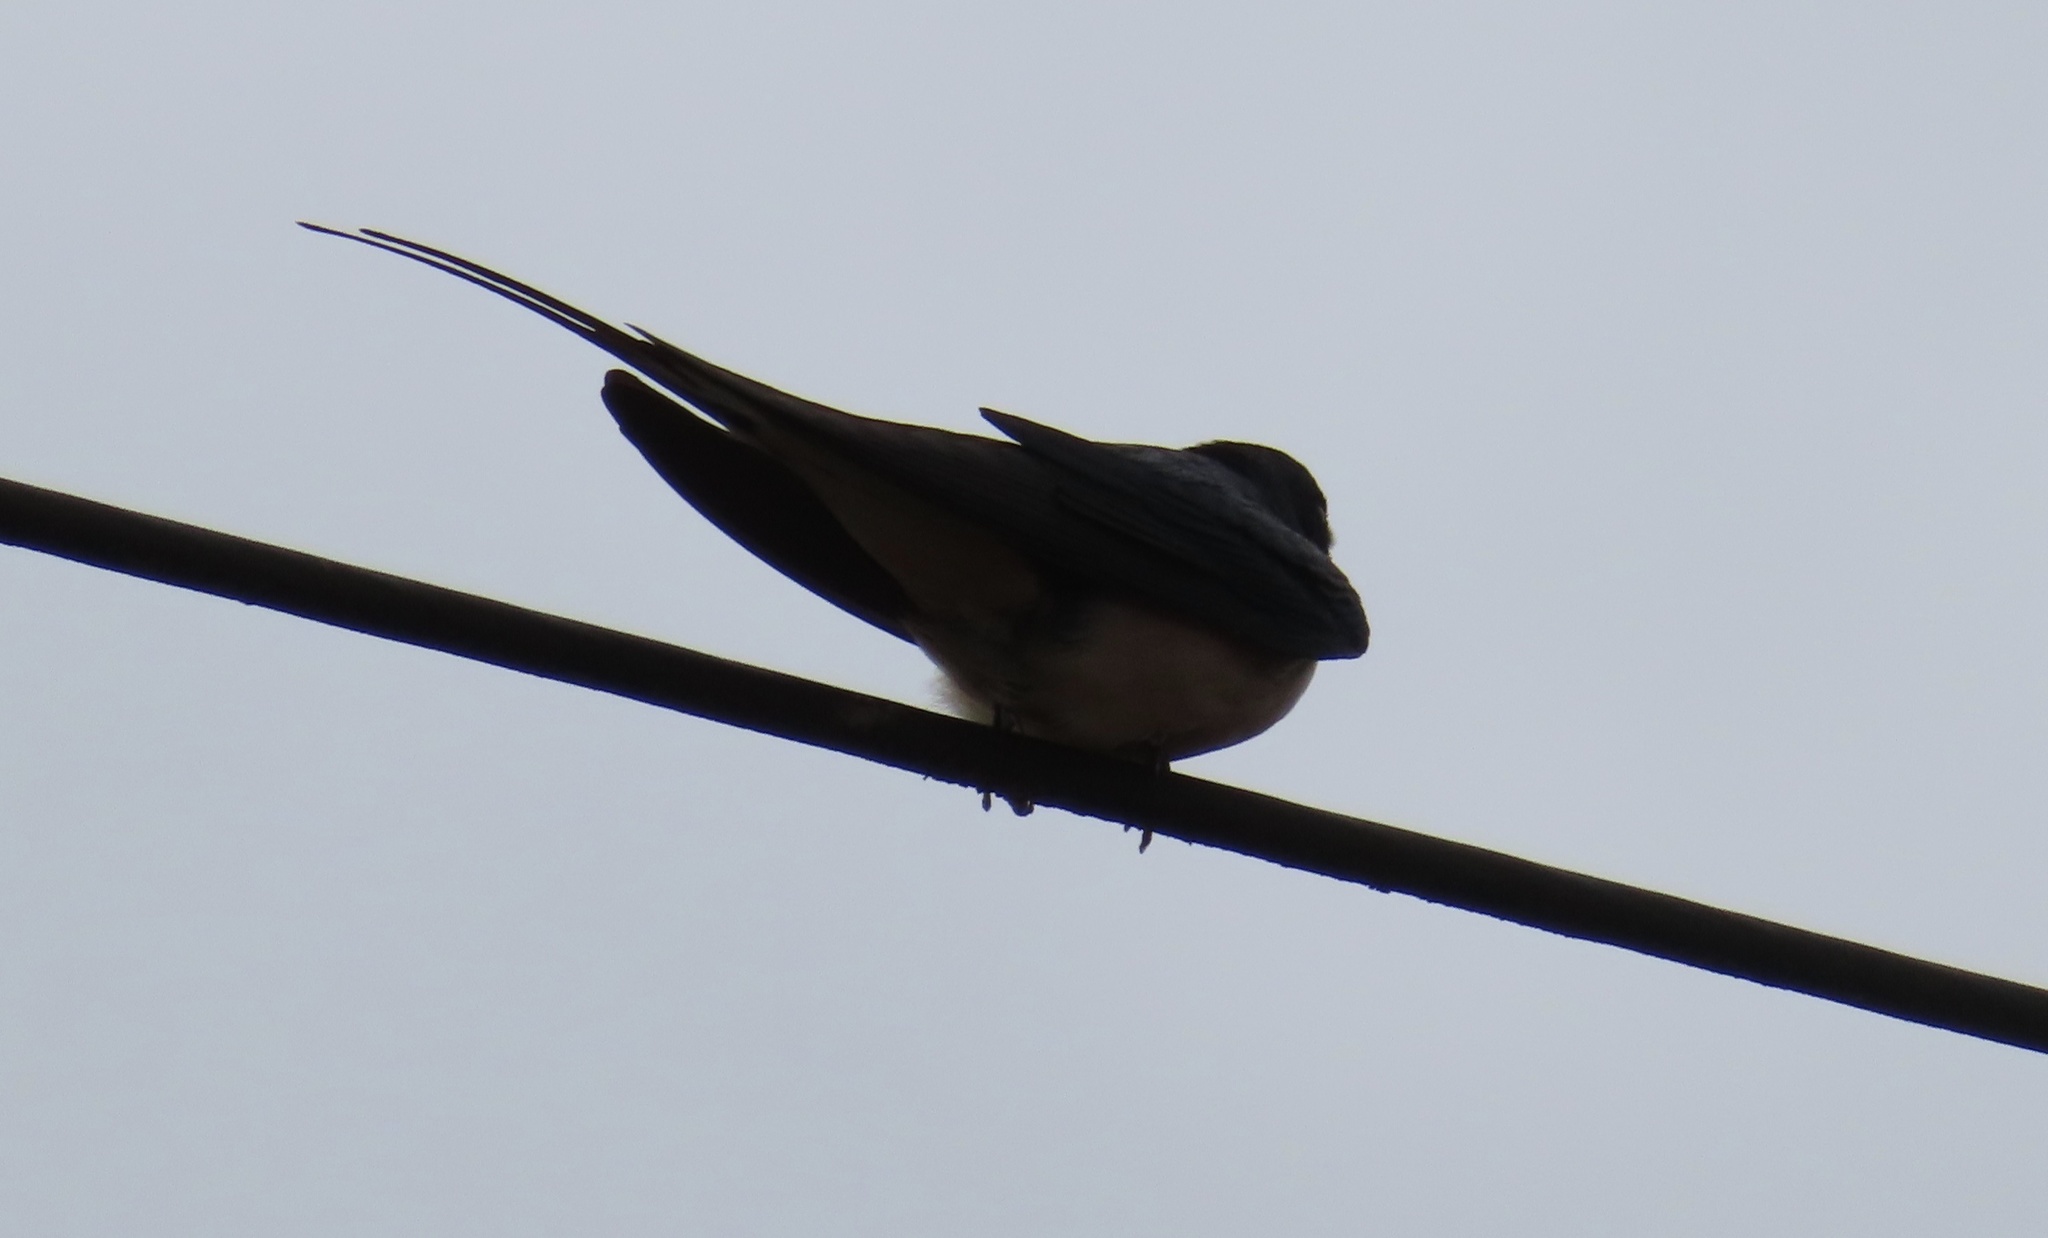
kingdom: Animalia
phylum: Chordata
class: Aves
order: Passeriformes
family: Hirundinidae
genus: Hirundo
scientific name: Hirundo rustica
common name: Barn swallow
